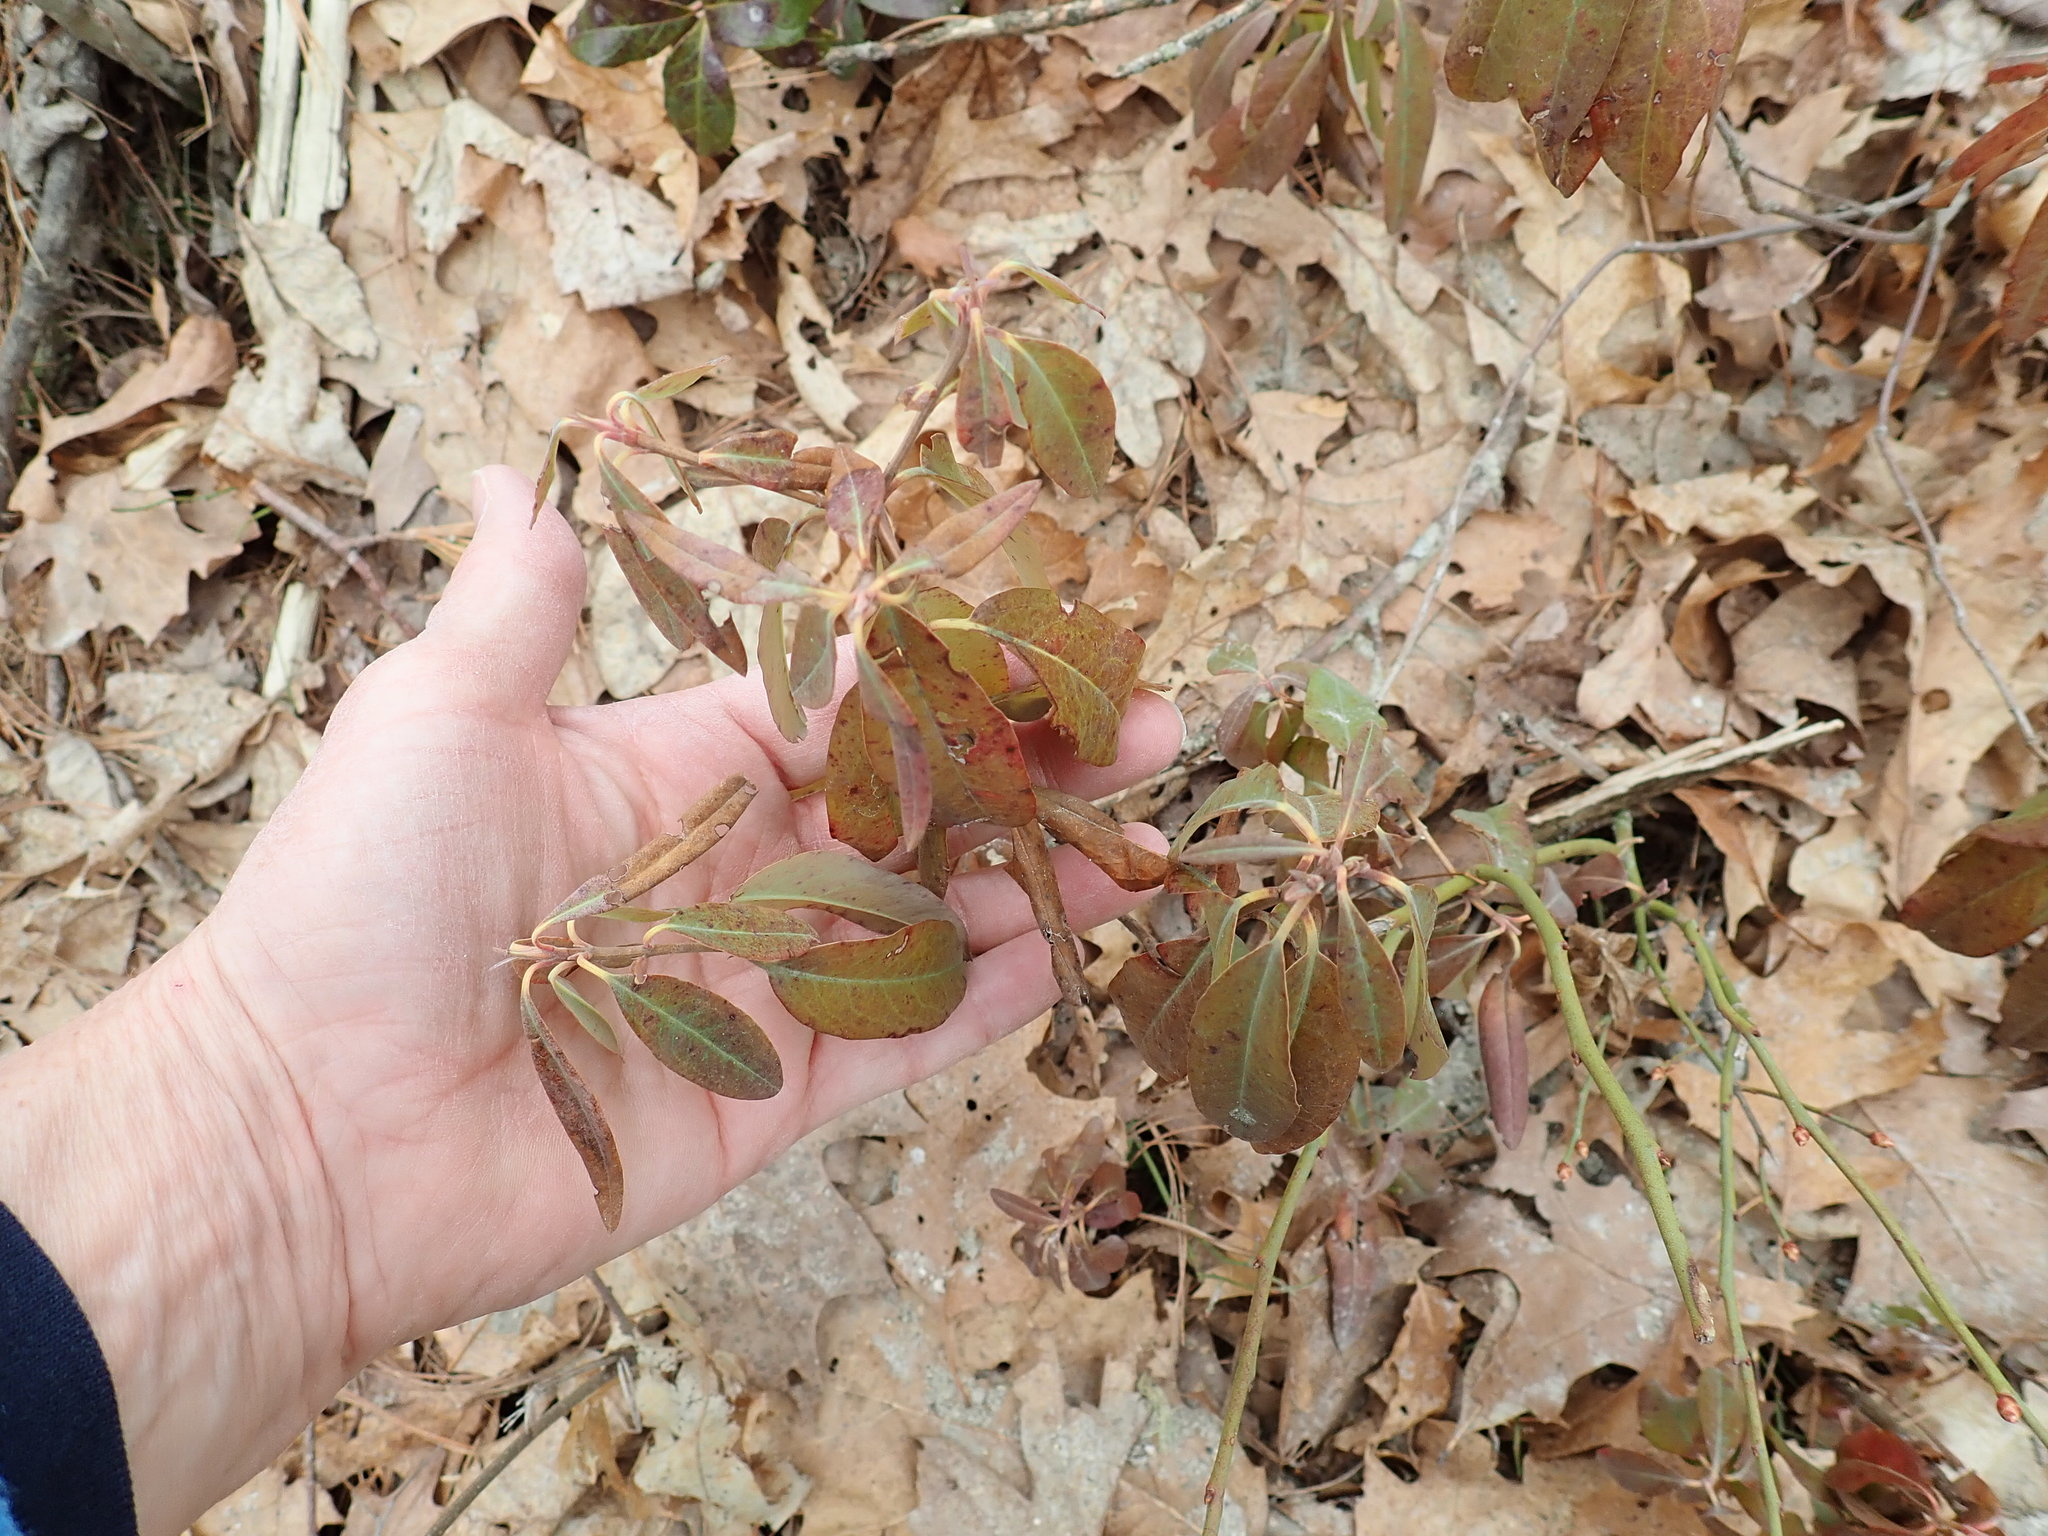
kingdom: Plantae
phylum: Tracheophyta
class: Magnoliopsida
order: Ericales
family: Ericaceae
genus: Kalmia
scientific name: Kalmia angustifolia
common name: Sheep-laurel
